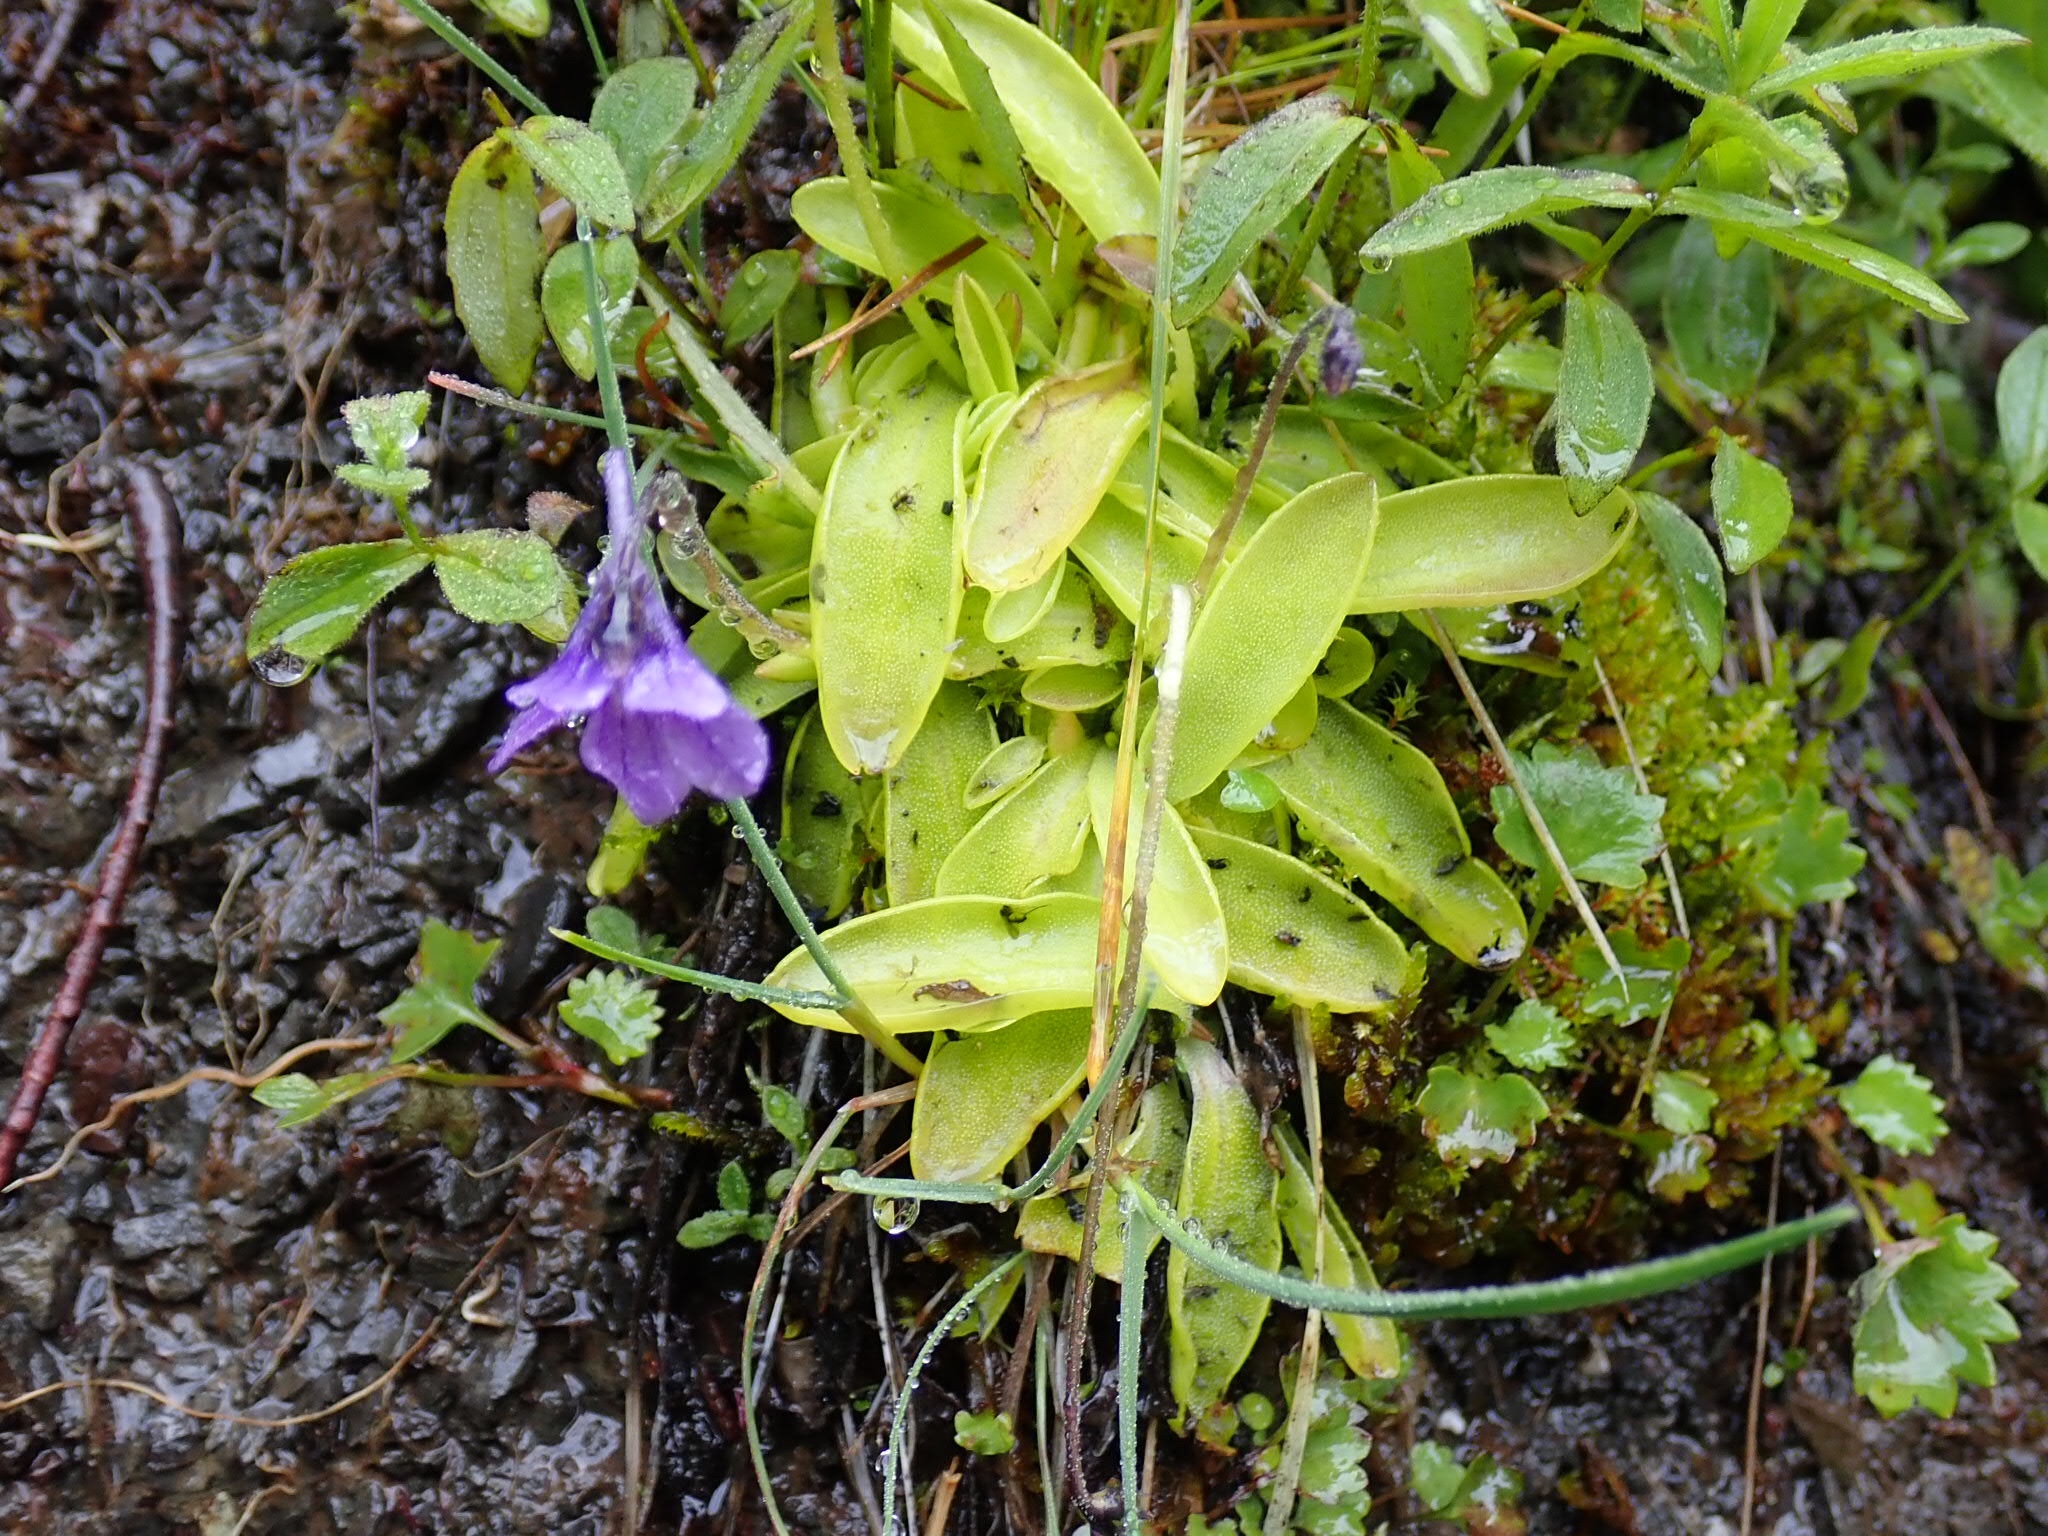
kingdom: Plantae
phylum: Tracheophyta
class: Magnoliopsida
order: Lamiales
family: Lentibulariaceae
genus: Pinguicula
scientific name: Pinguicula vulgaris
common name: Common butterwort
